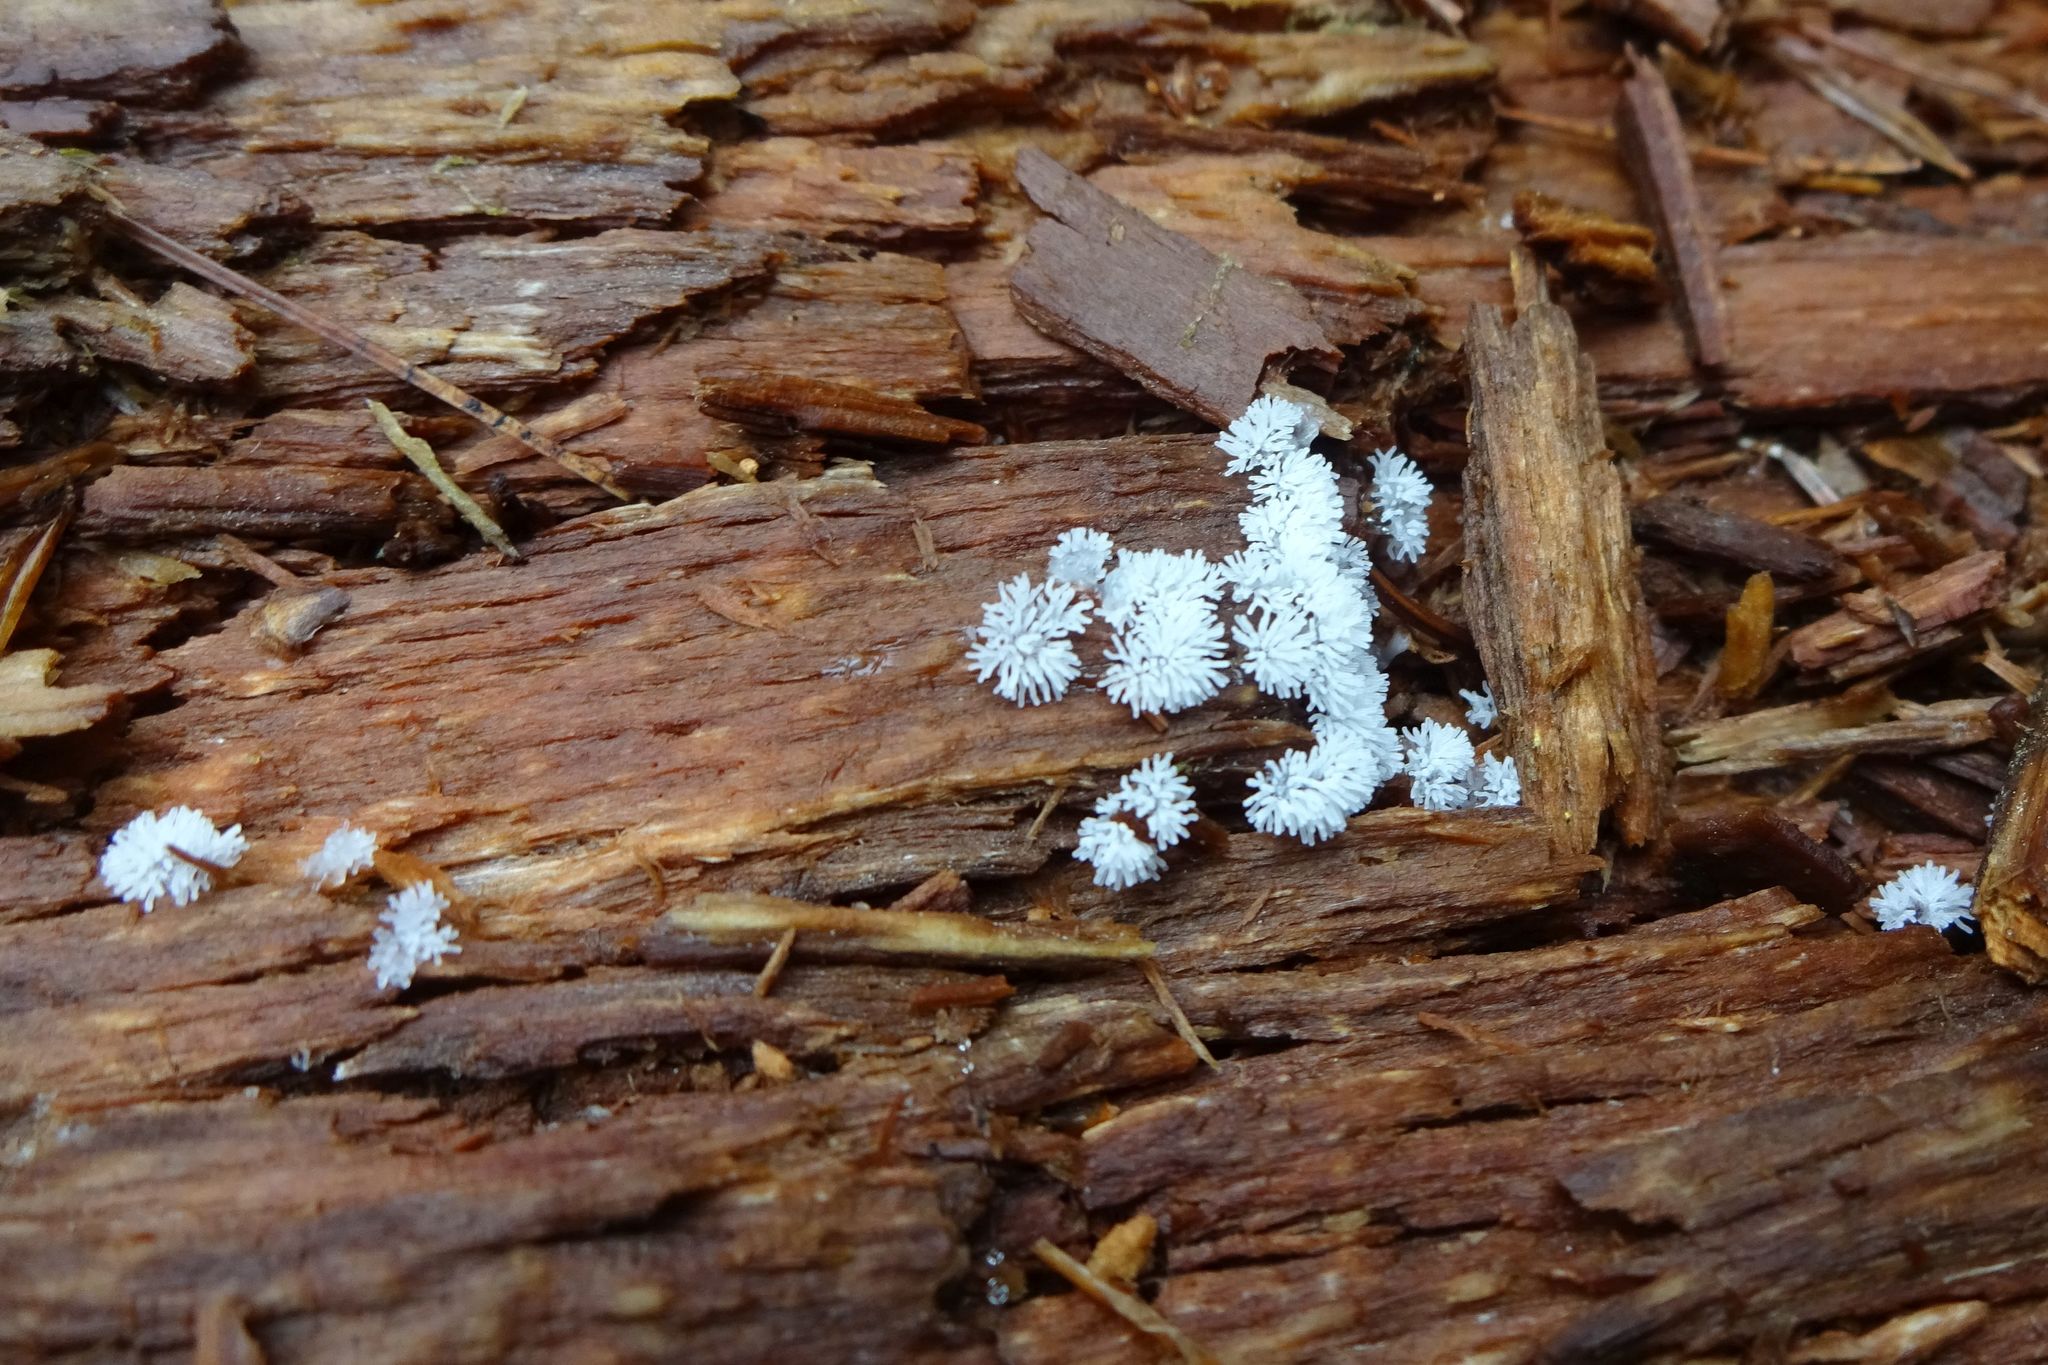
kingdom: Protozoa
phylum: Mycetozoa
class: Protosteliomycetes
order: Ceratiomyxales
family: Ceratiomyxaceae
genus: Ceratiomyxa
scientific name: Ceratiomyxa fruticulosa
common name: Honeycomb coral slime mold
